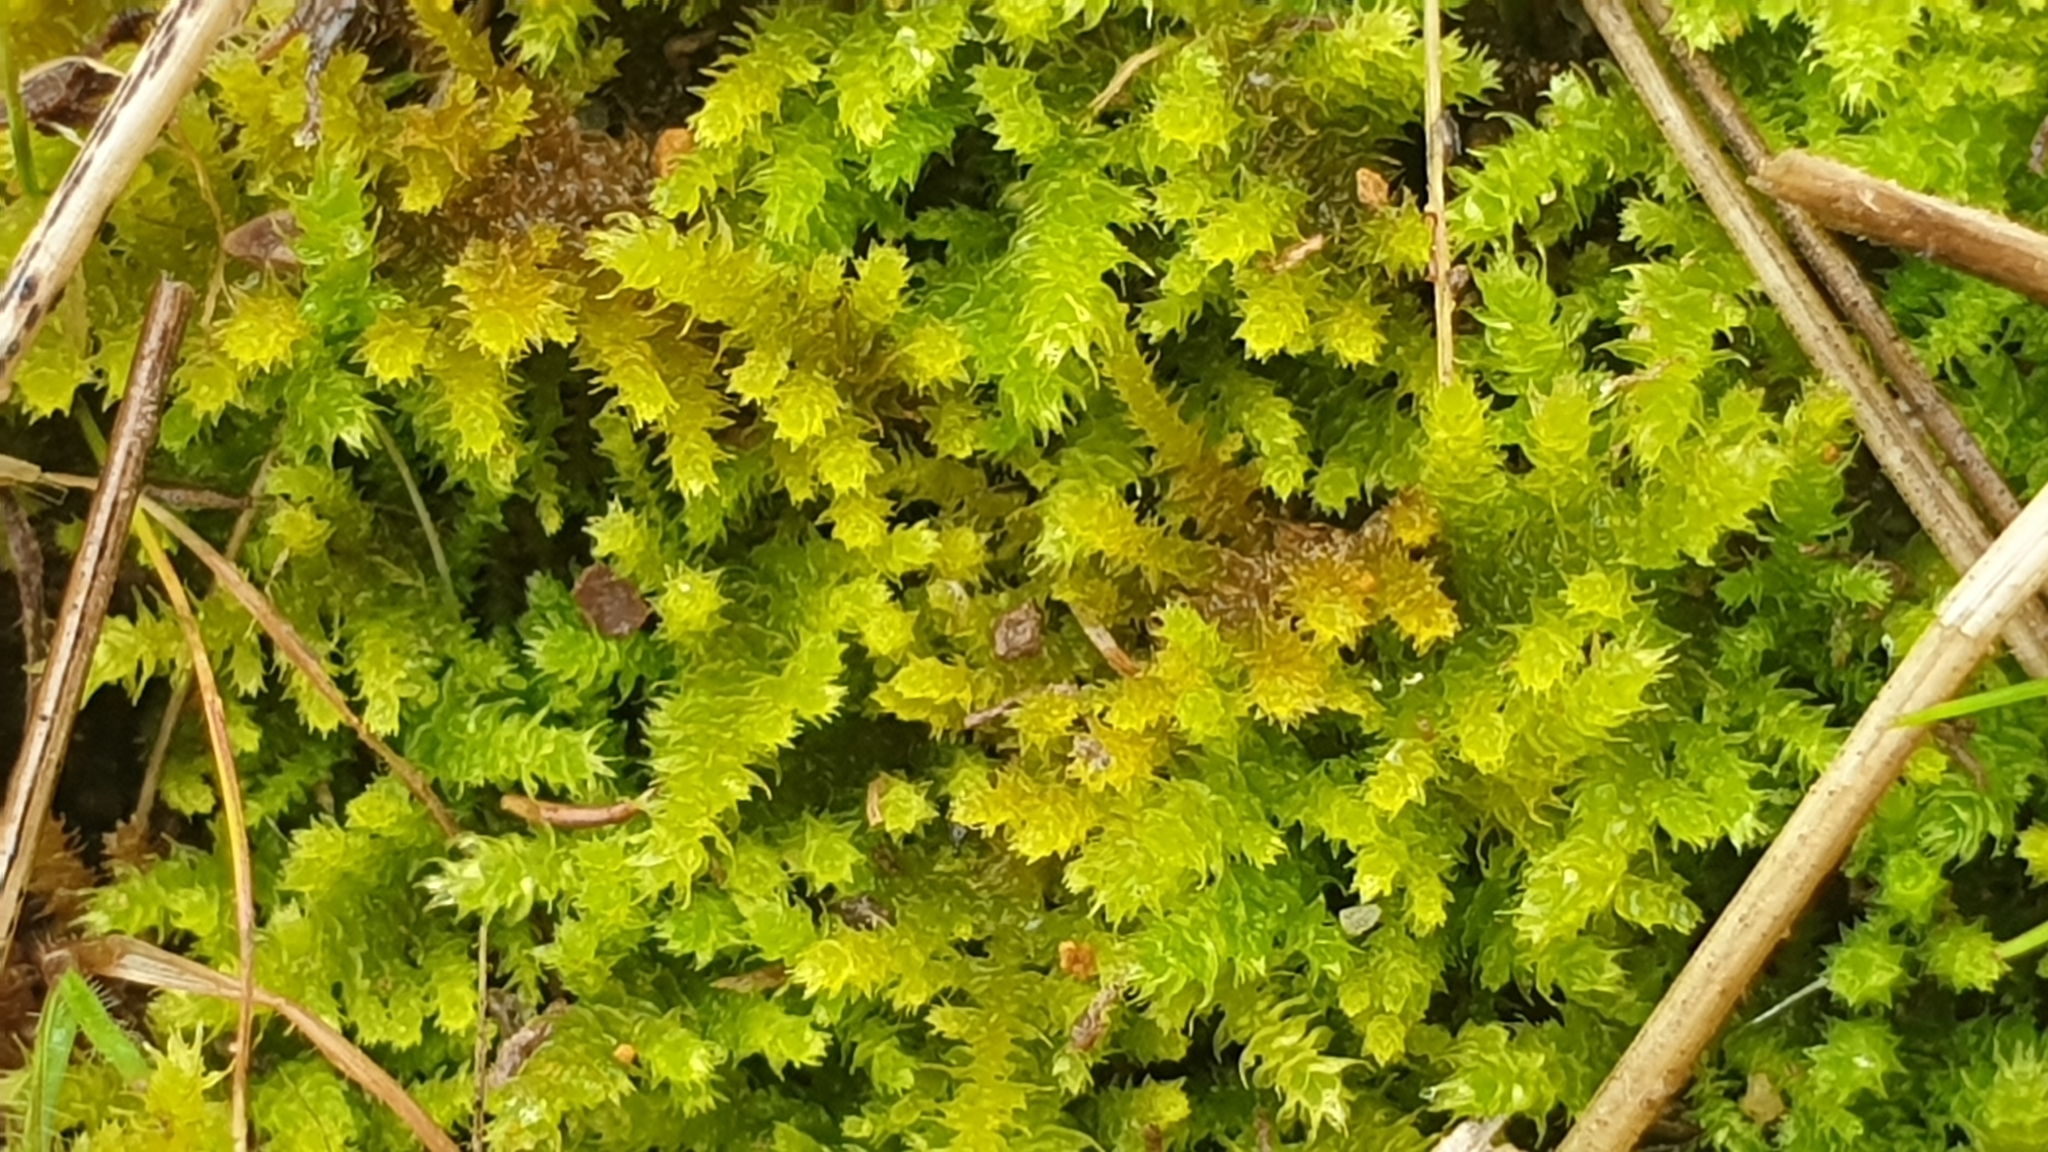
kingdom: Plantae
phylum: Bryophyta
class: Bryopsida
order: Hypnales
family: Thuidiaceae
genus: Thuidiopsis
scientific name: Thuidiopsis sparsa
